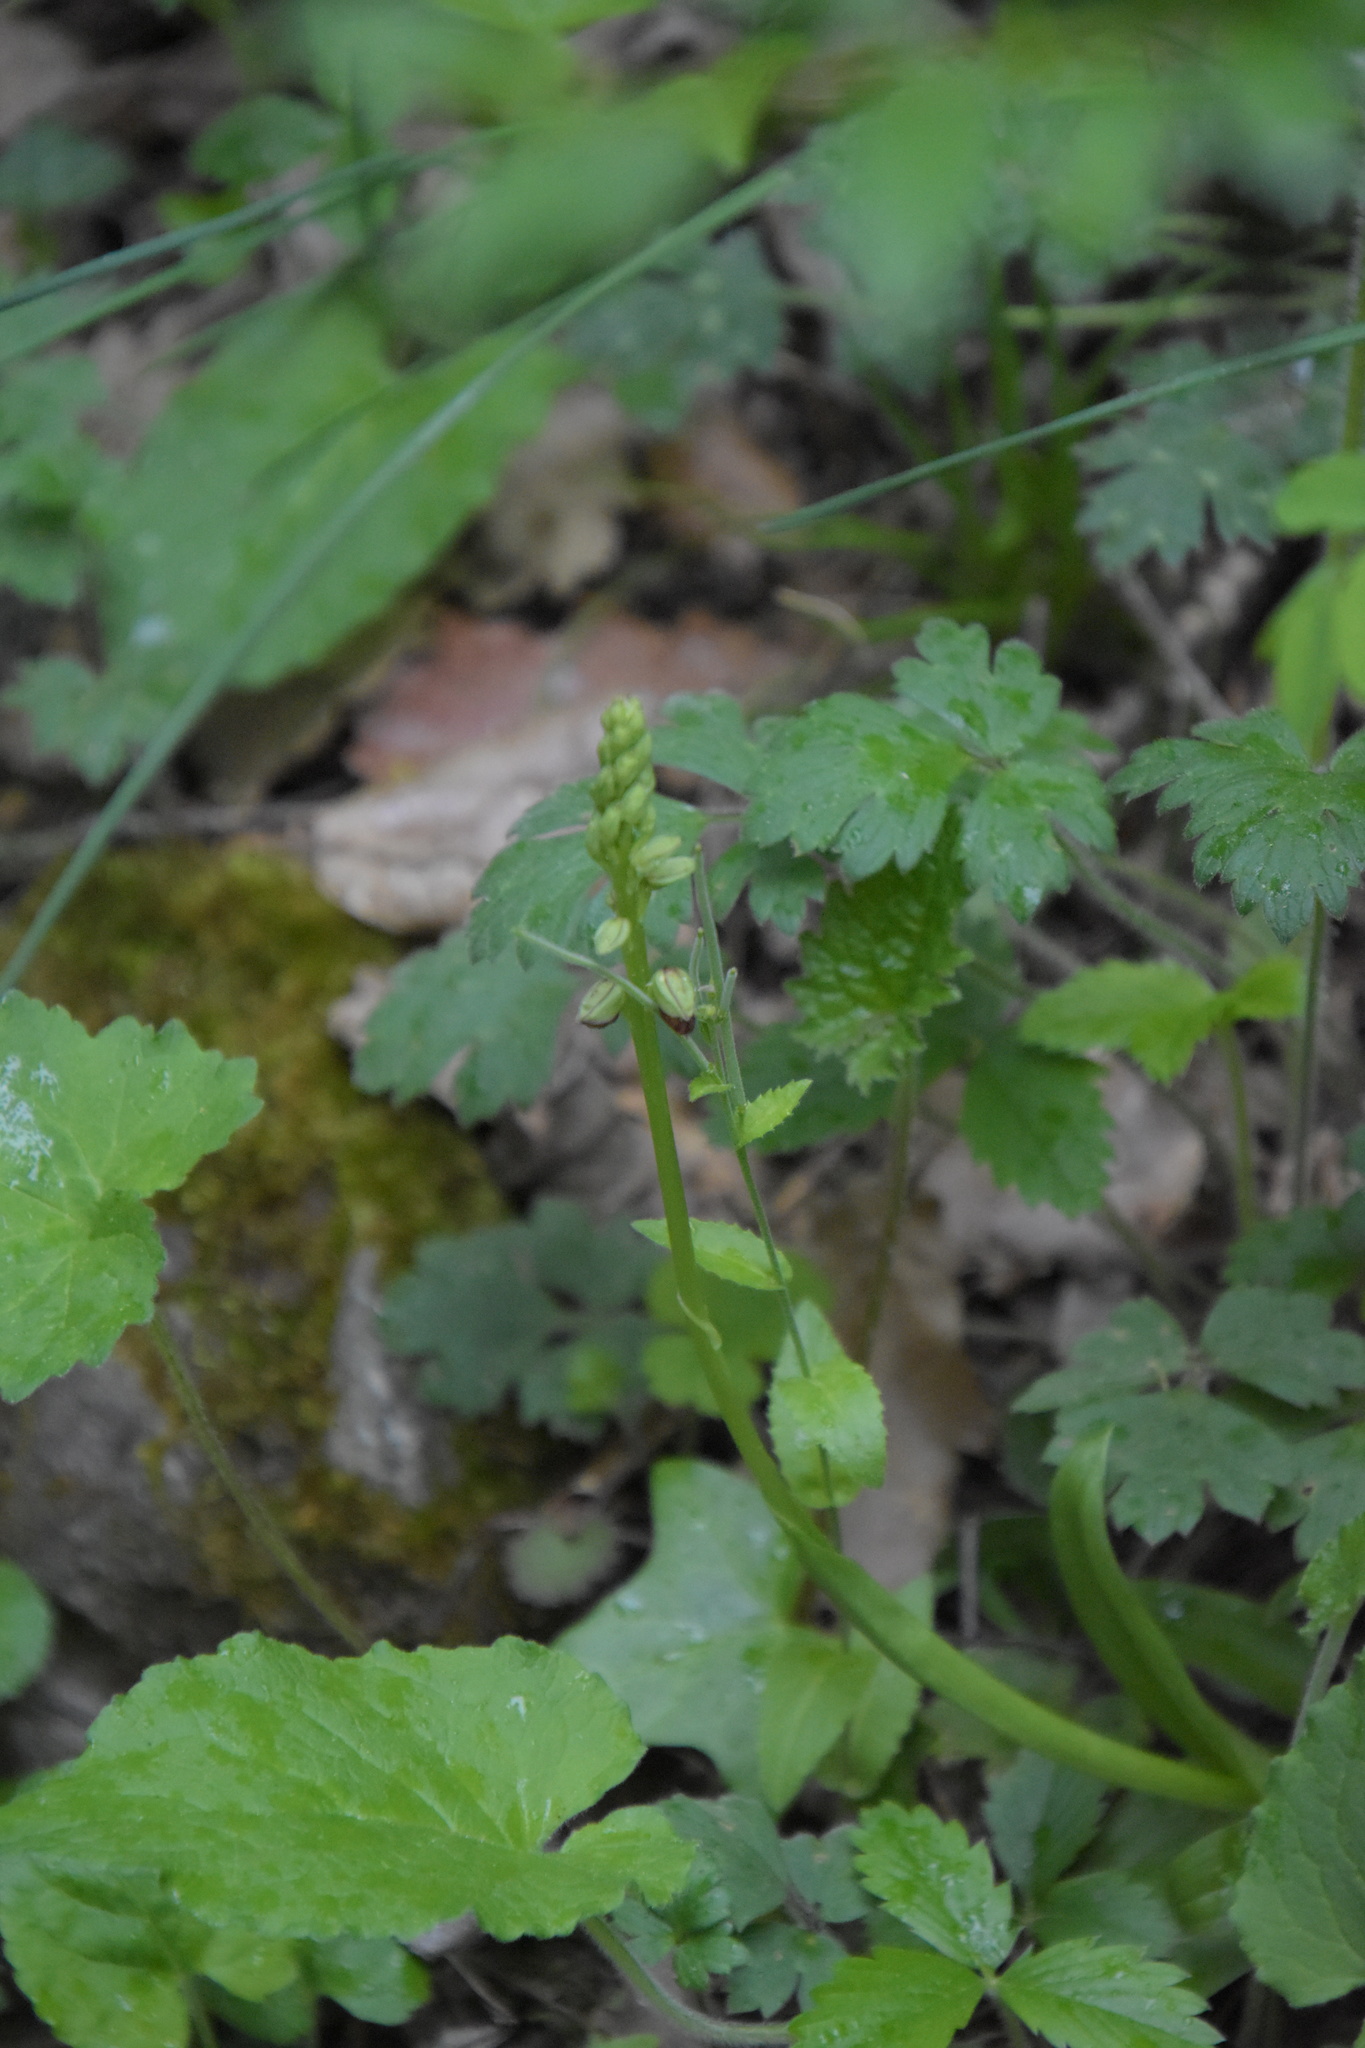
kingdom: Plantae
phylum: Tracheophyta
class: Liliopsida
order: Asparagales
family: Orchidaceae
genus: Orchis
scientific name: Orchis anthropophora
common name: Man orchid
